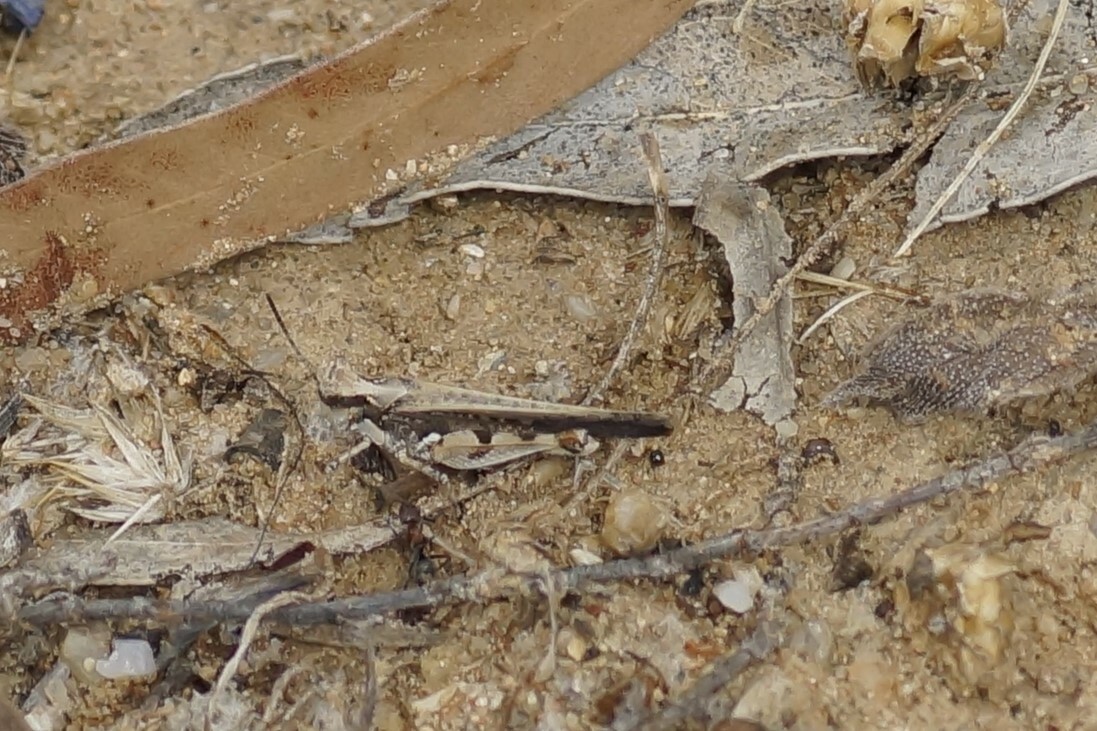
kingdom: Animalia
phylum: Arthropoda
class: Insecta
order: Orthoptera
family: Acrididae
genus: Pycnostictus
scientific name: Pycnostictus seriatus
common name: Common bandwing
